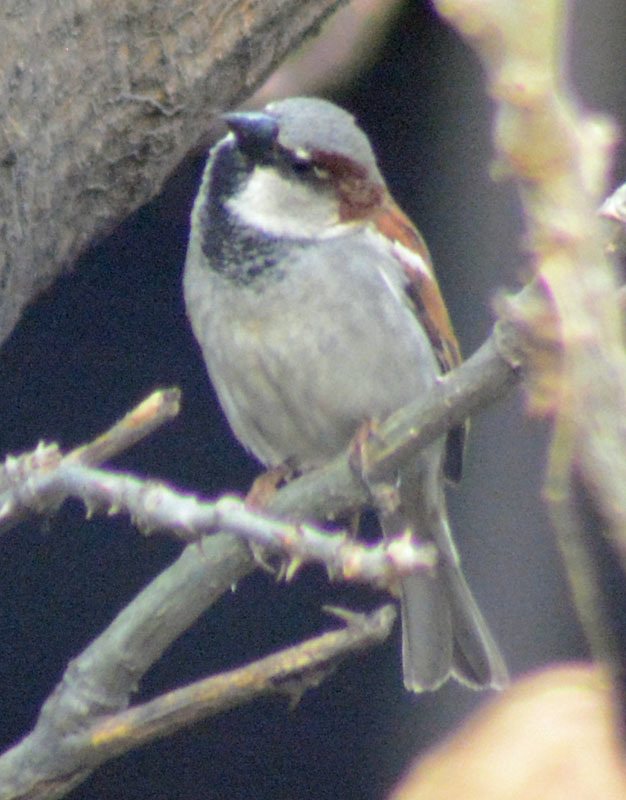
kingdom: Animalia
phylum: Chordata
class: Aves
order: Passeriformes
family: Passeridae
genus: Passer
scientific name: Passer domesticus
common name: House sparrow
